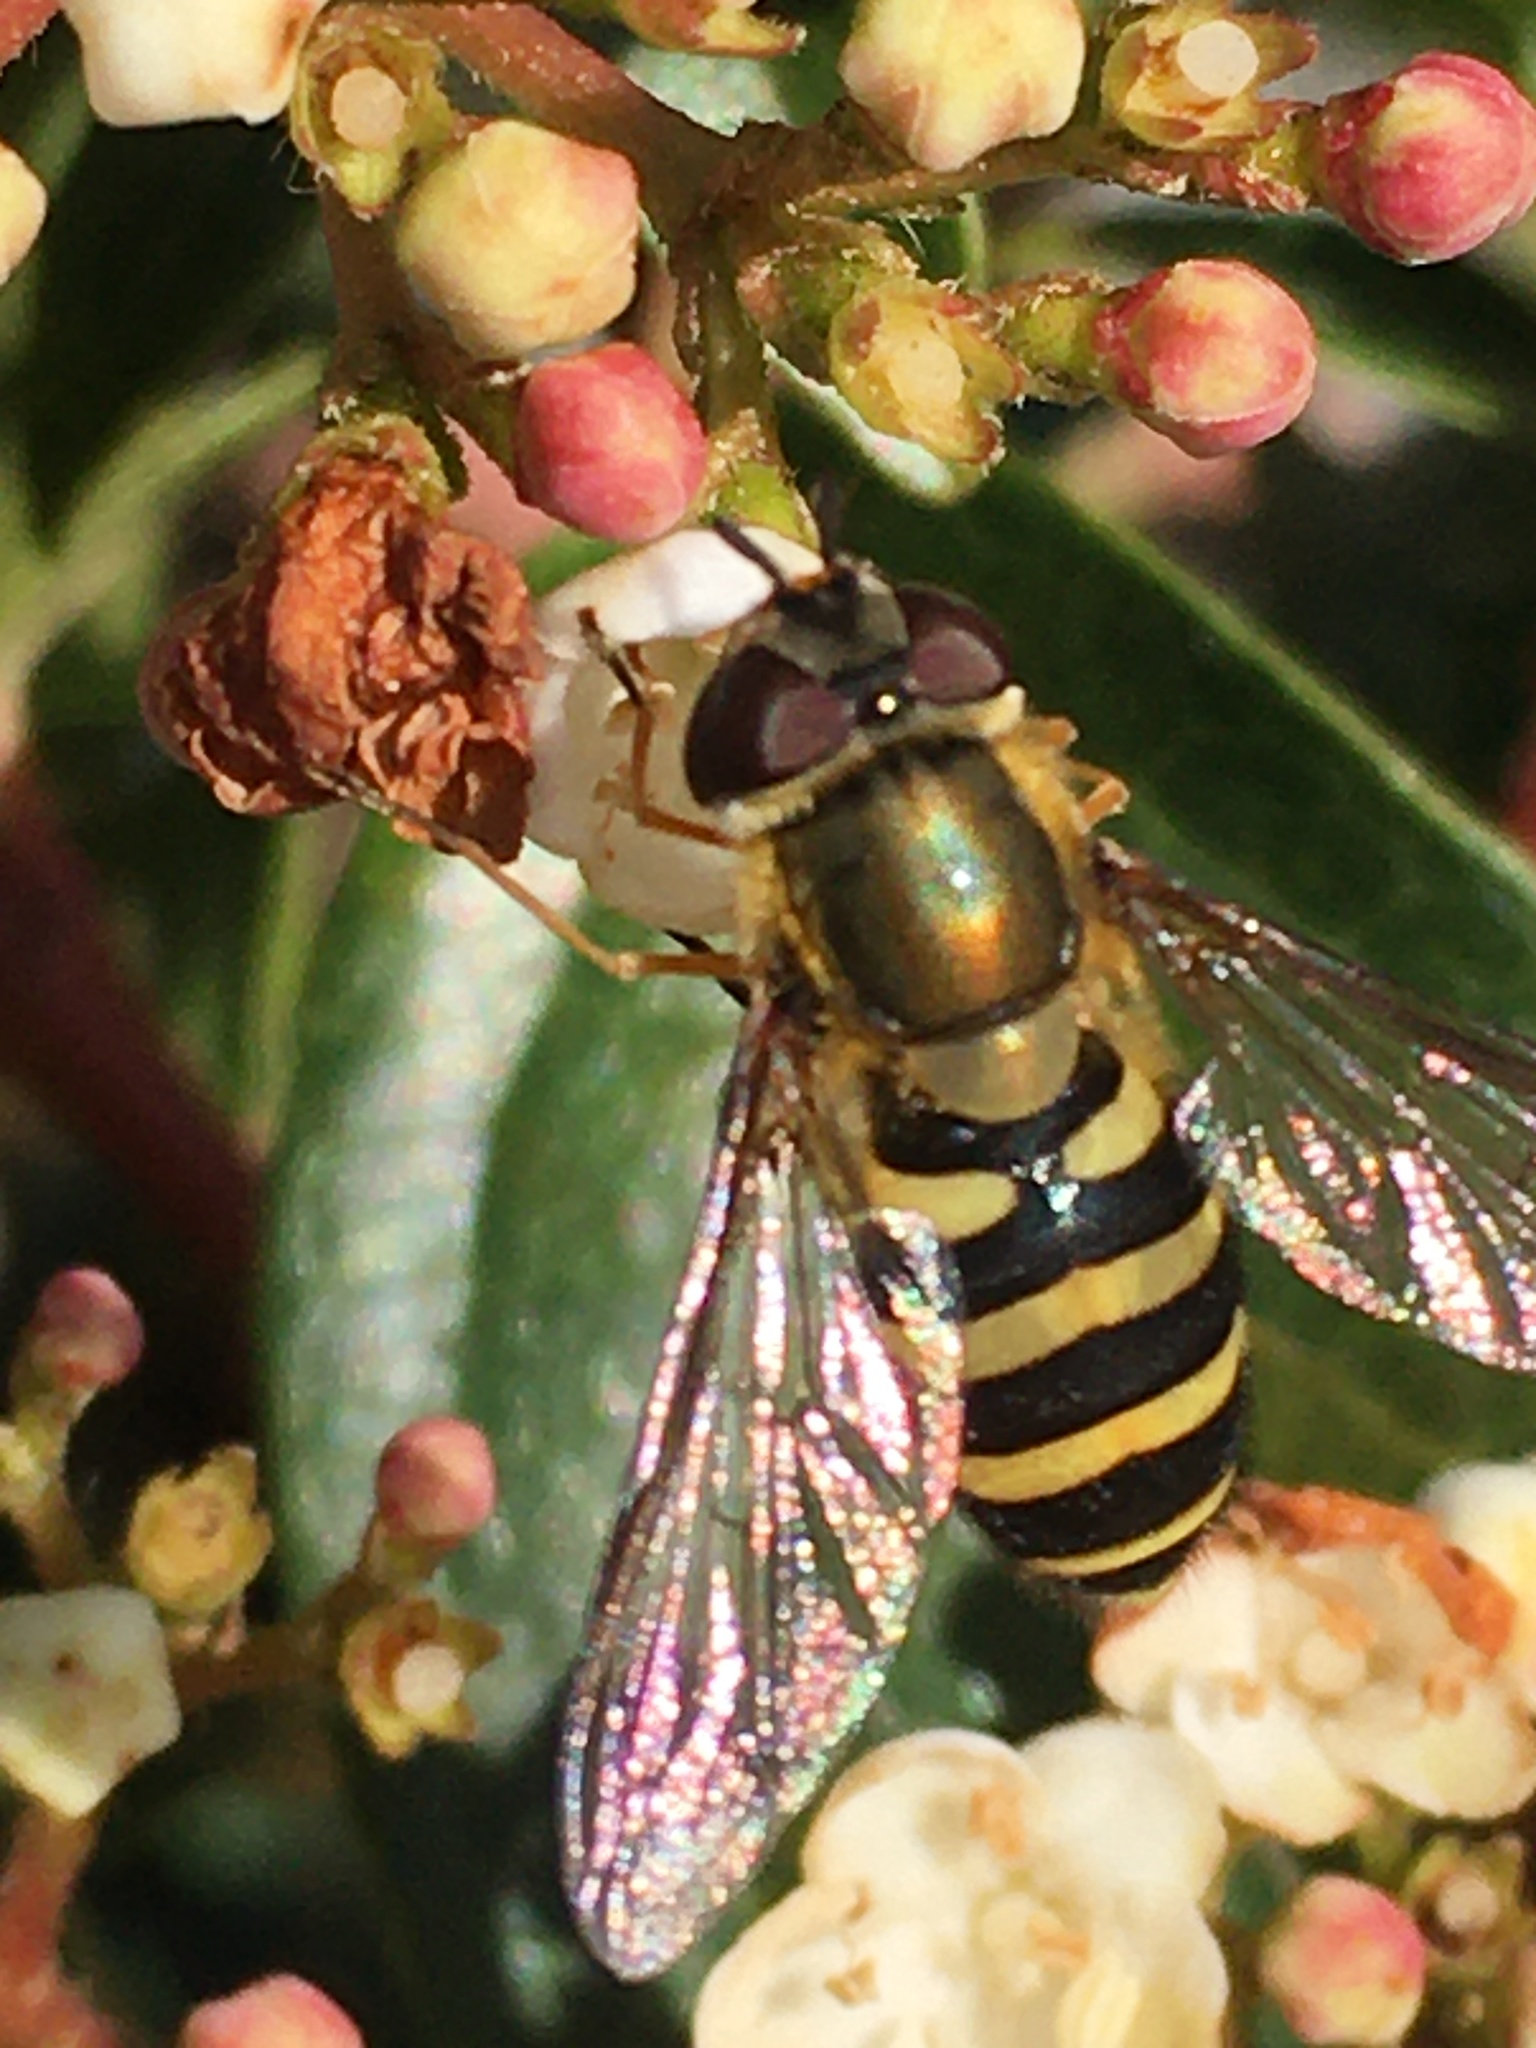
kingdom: Animalia
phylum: Arthropoda
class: Insecta
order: Diptera
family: Syrphidae
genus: Syrphus
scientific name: Syrphus
